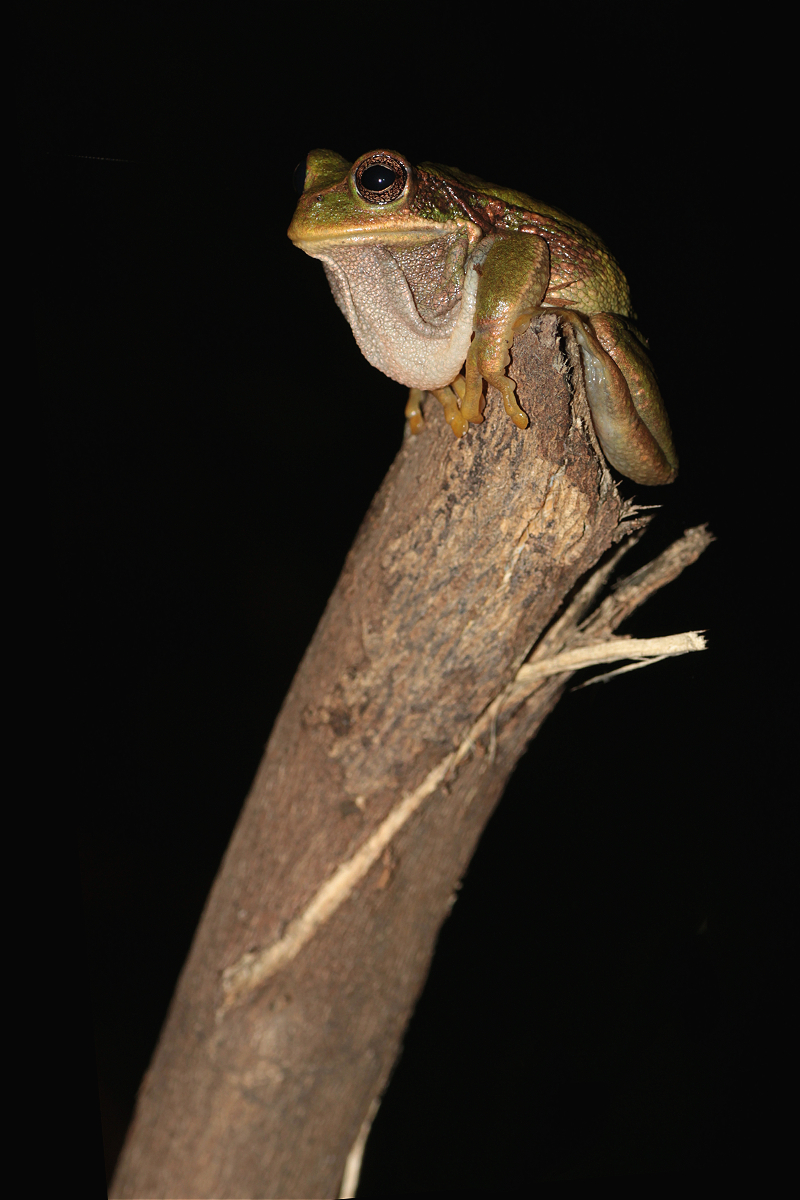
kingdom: Animalia
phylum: Chordata
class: Amphibia
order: Anura
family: Hemiphractidae
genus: Gastrotheca
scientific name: Gastrotheca cuencana
